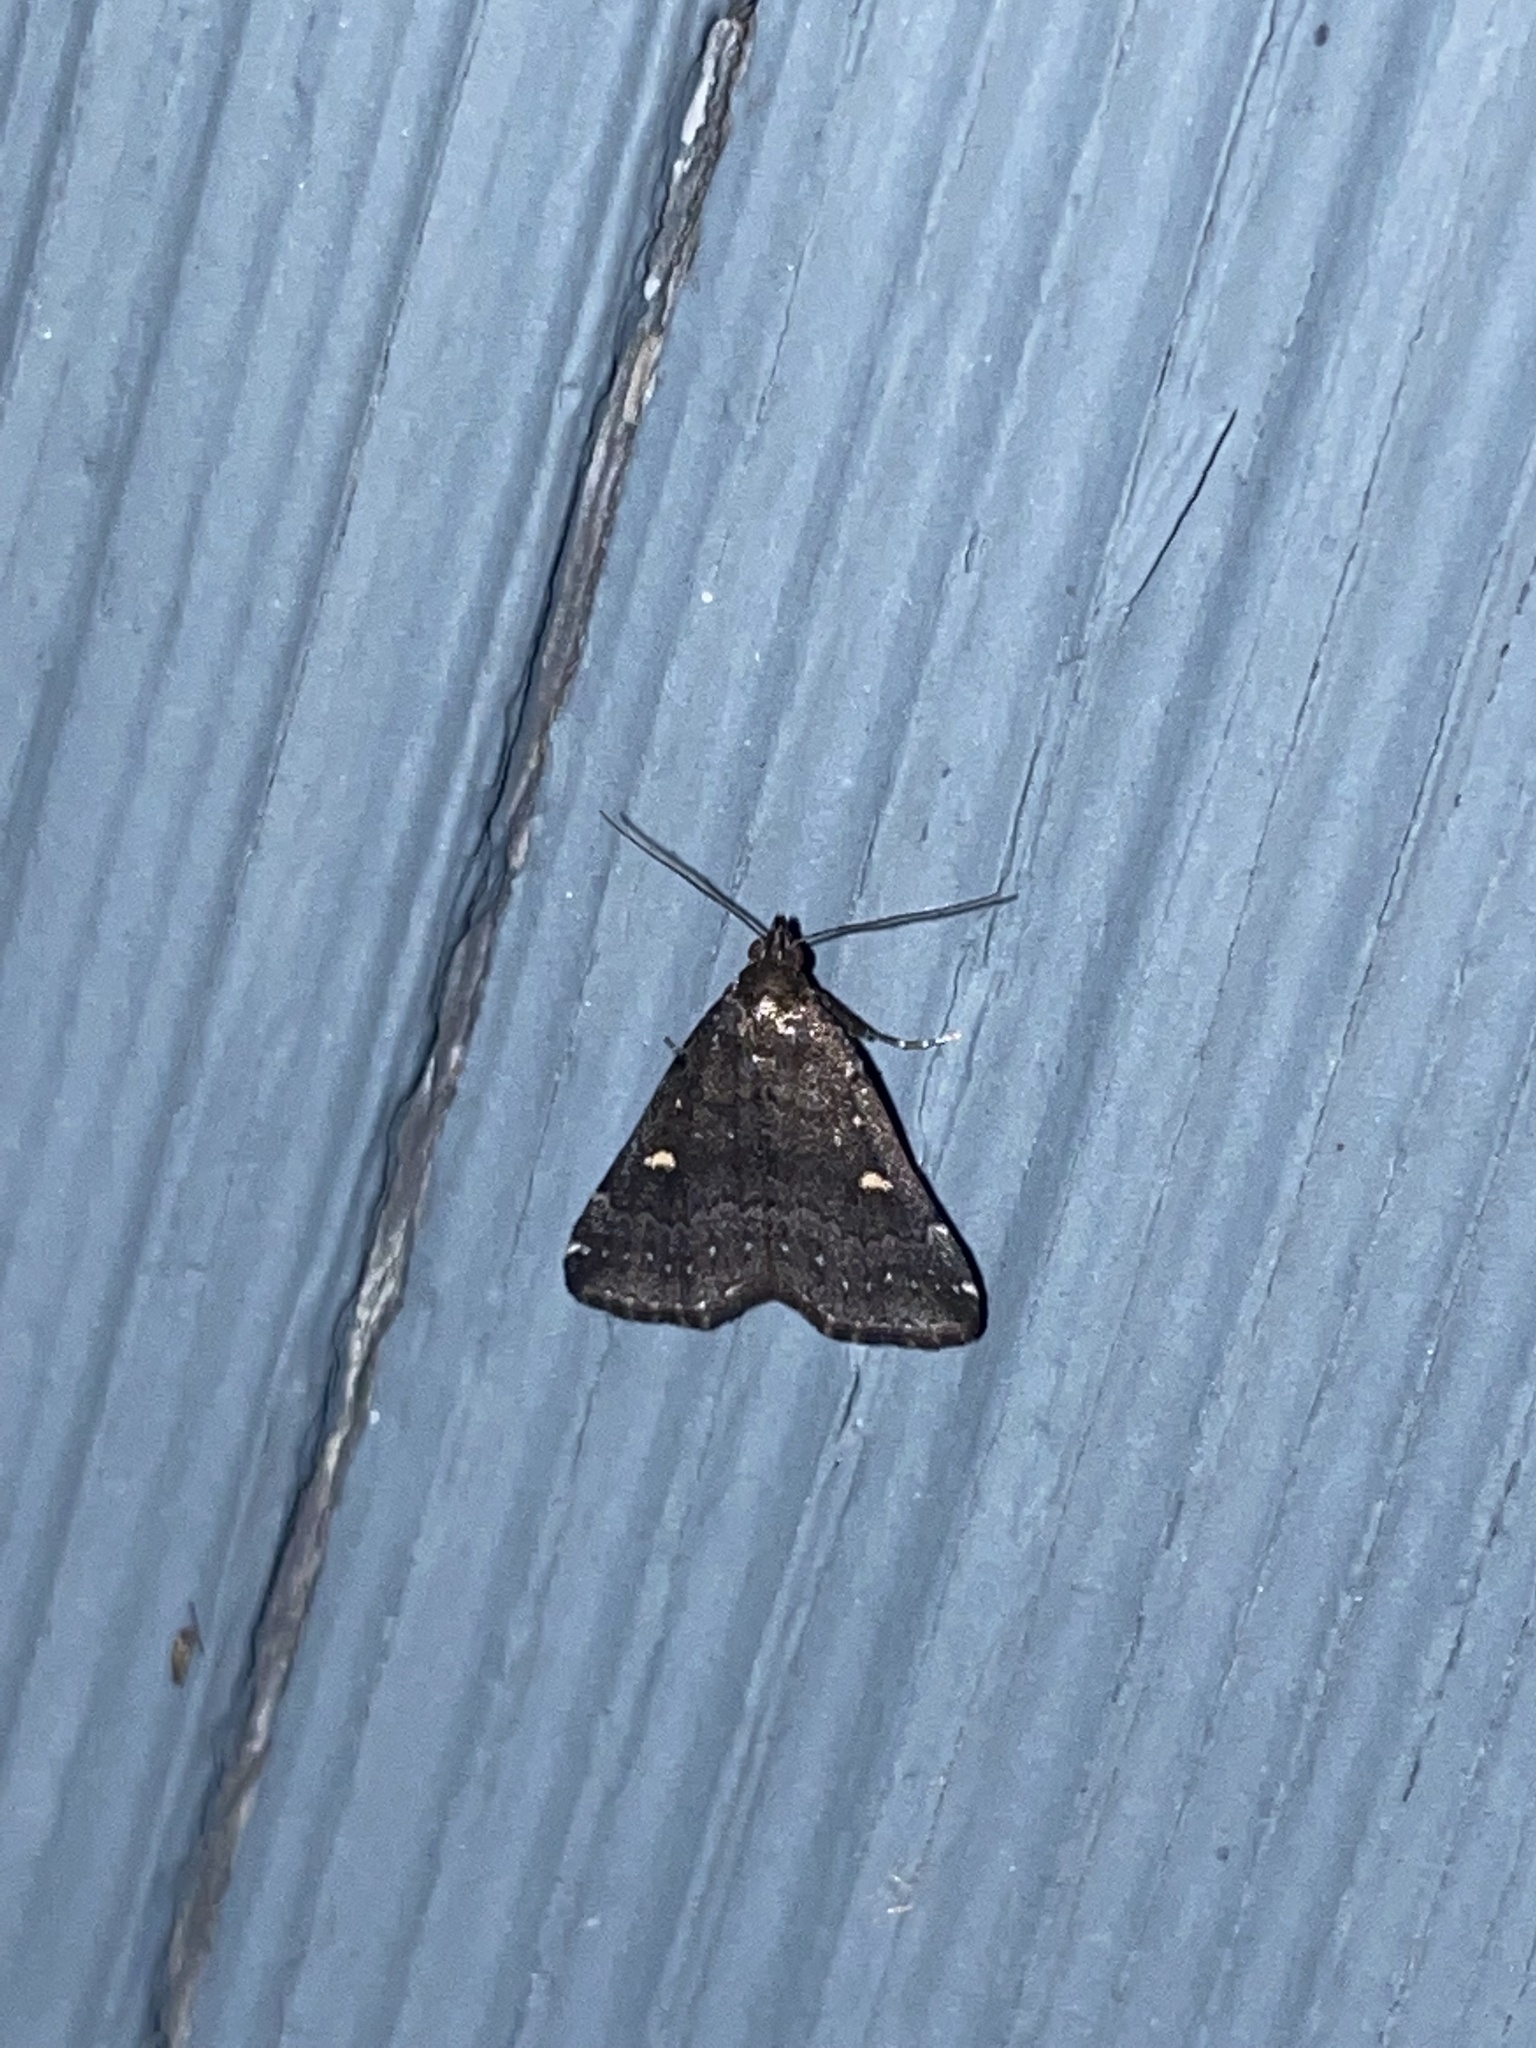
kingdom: Animalia
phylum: Arthropoda
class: Insecta
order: Lepidoptera
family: Erebidae
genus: Tetanolita
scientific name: Tetanolita mynesalis
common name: Smoky tetanolita moth
